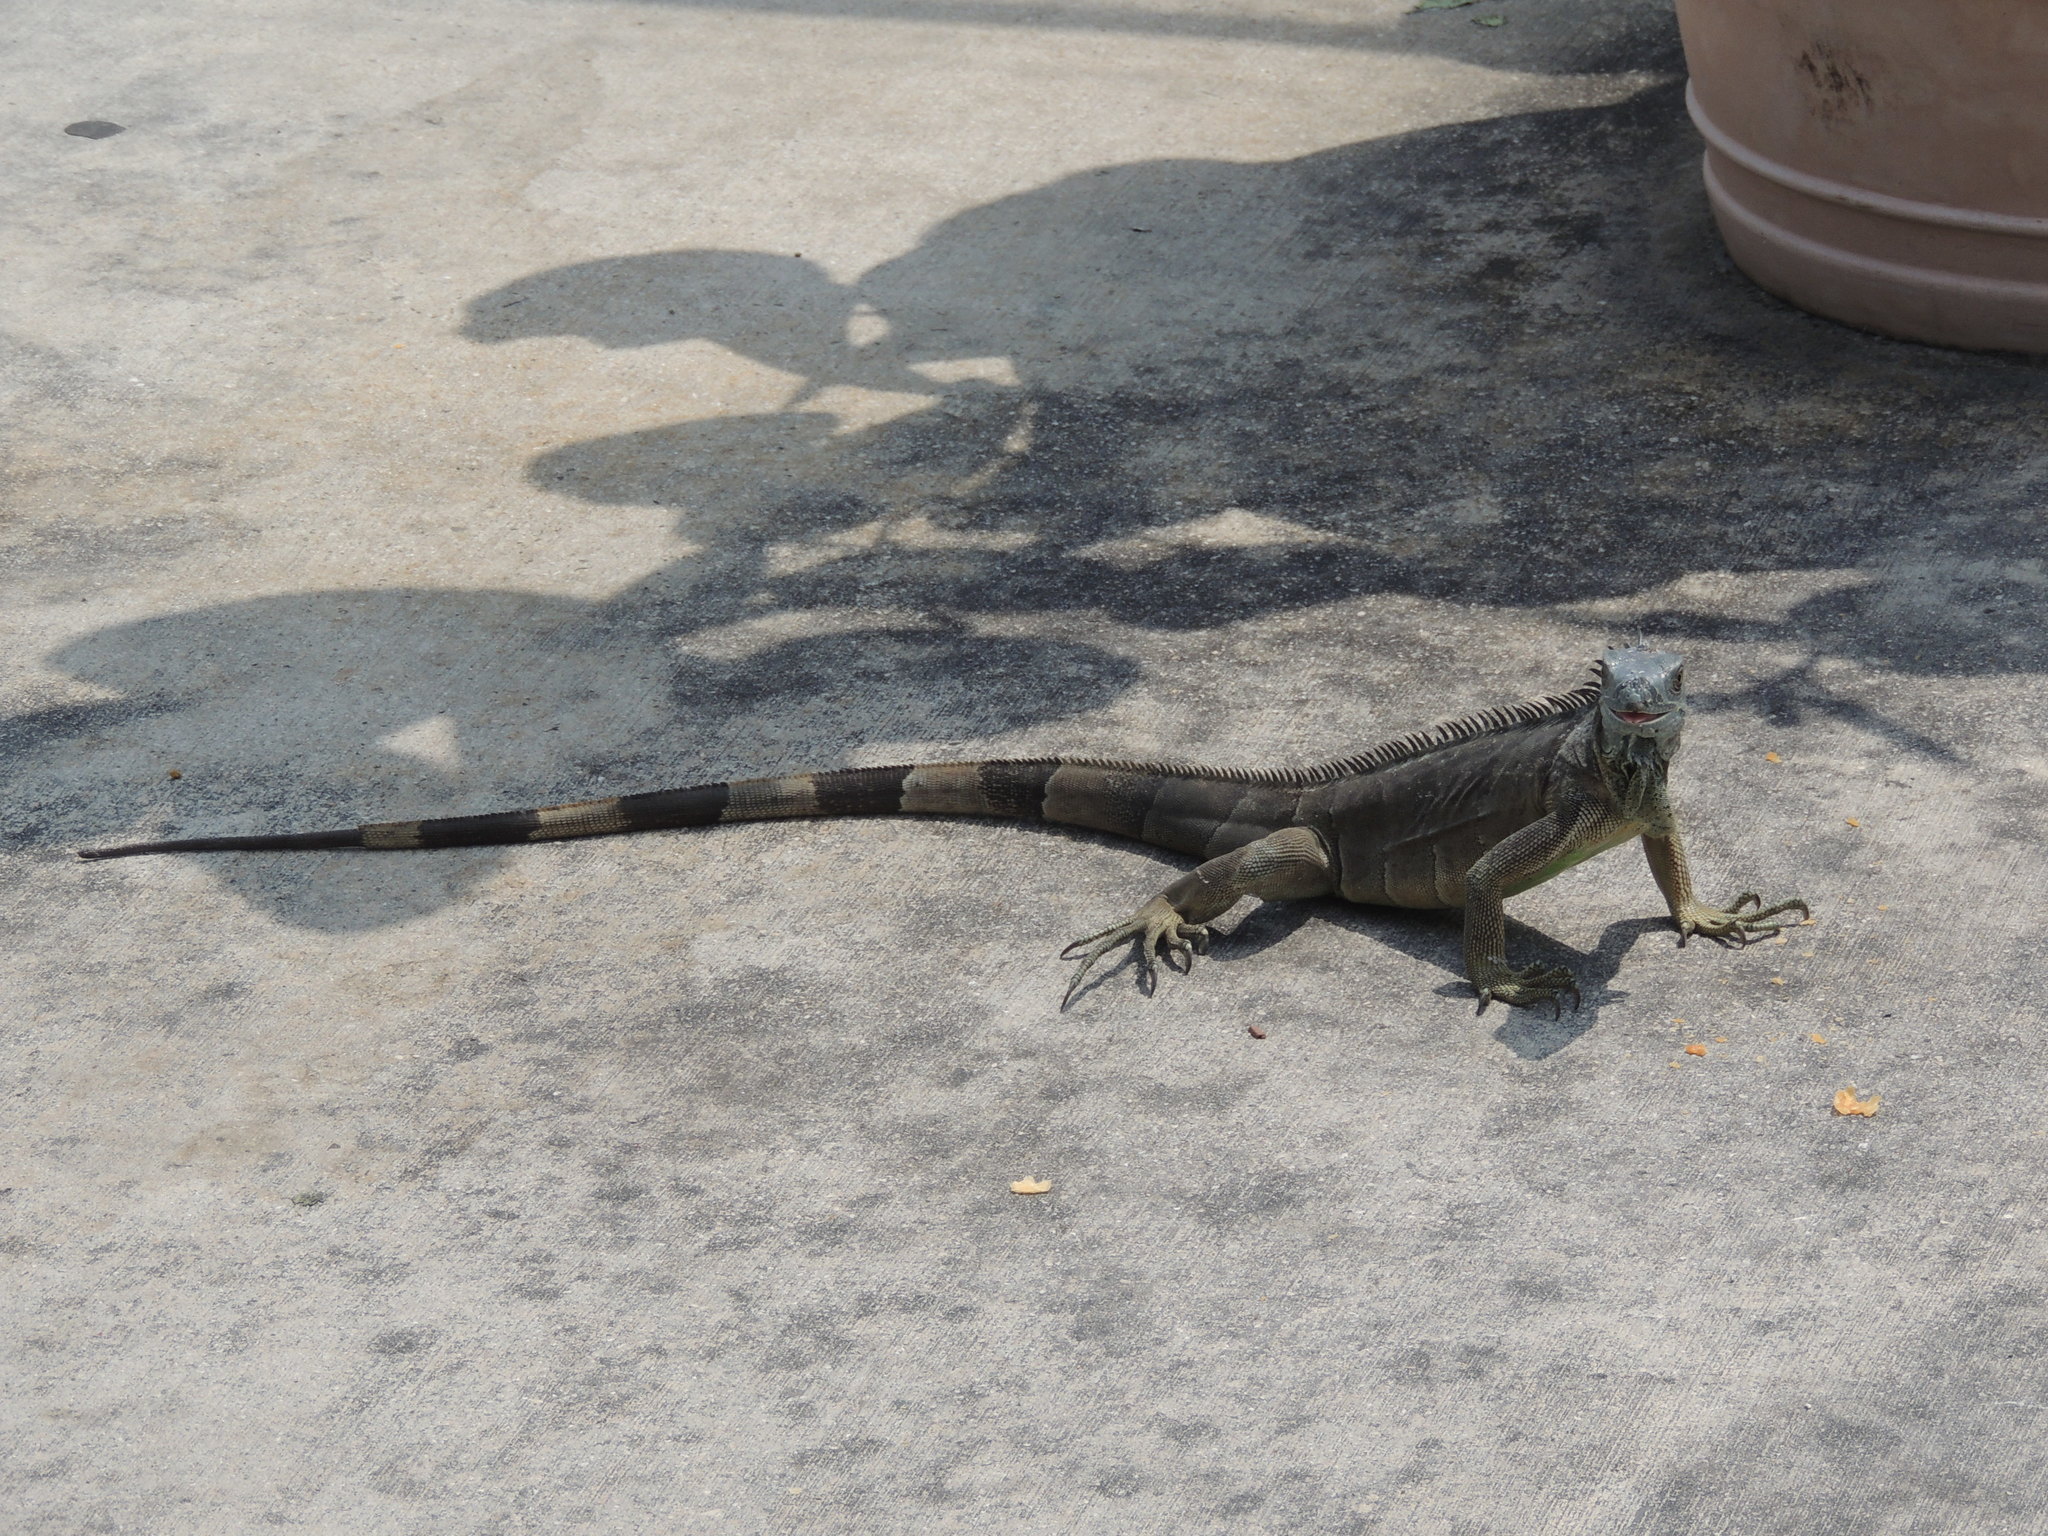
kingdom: Animalia
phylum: Chordata
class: Squamata
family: Iguanidae
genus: Iguana
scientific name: Iguana iguana
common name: Green iguana
